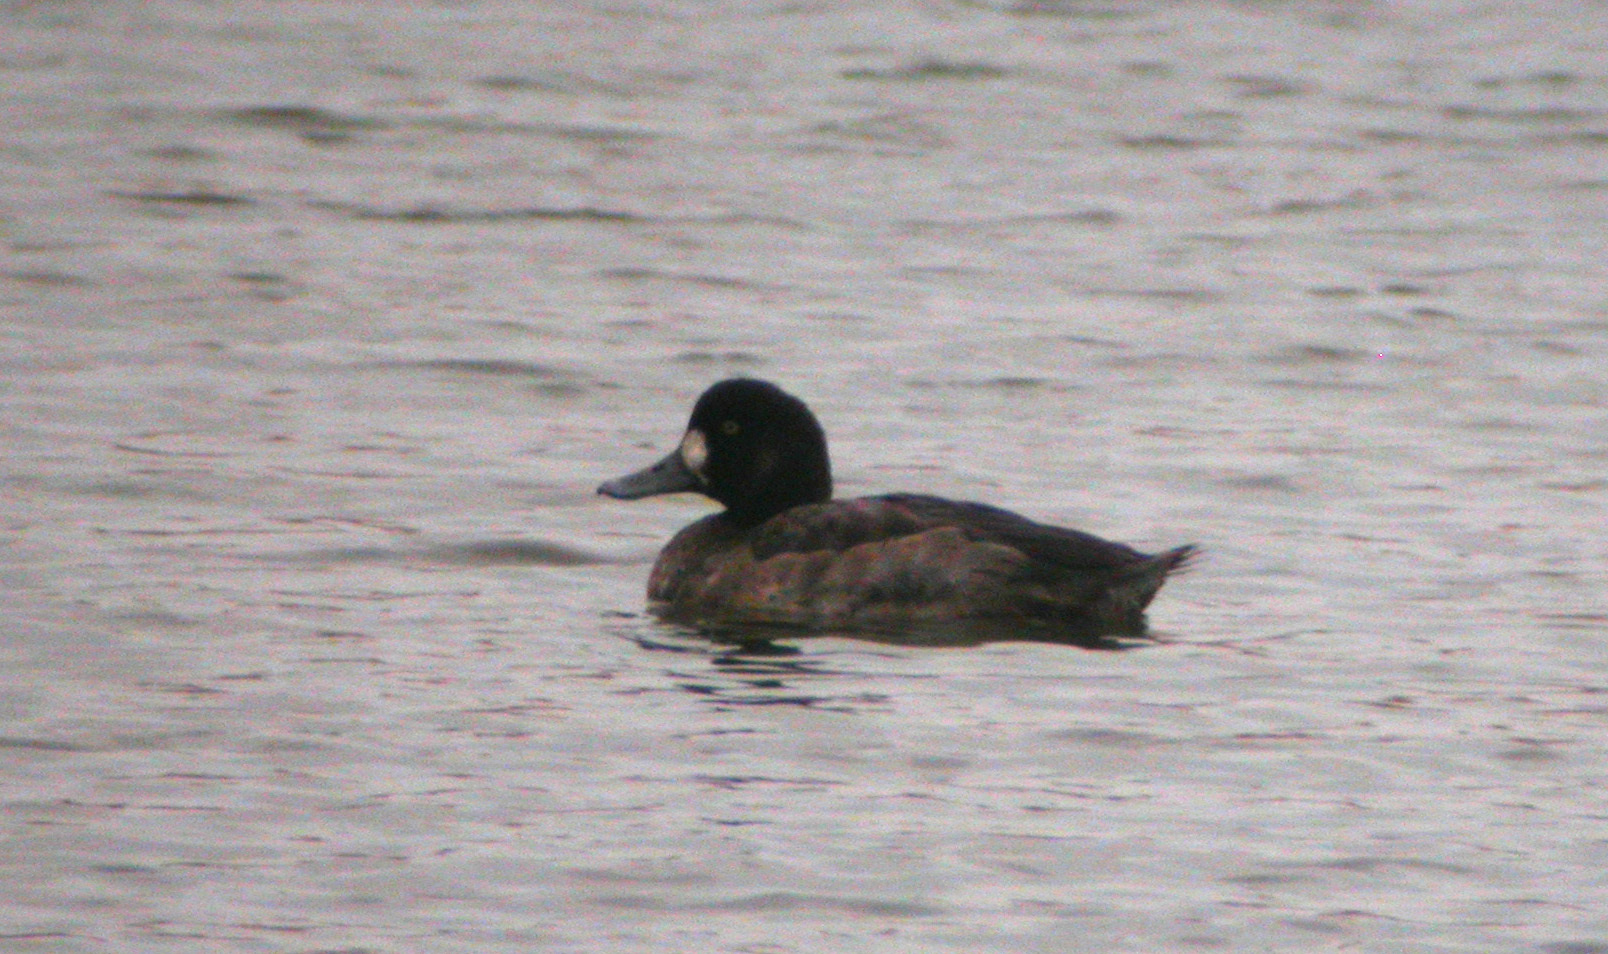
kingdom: Animalia
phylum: Chordata
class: Aves
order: Anseriformes
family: Anatidae
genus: Aythya
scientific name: Aythya marila
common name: Greater scaup
